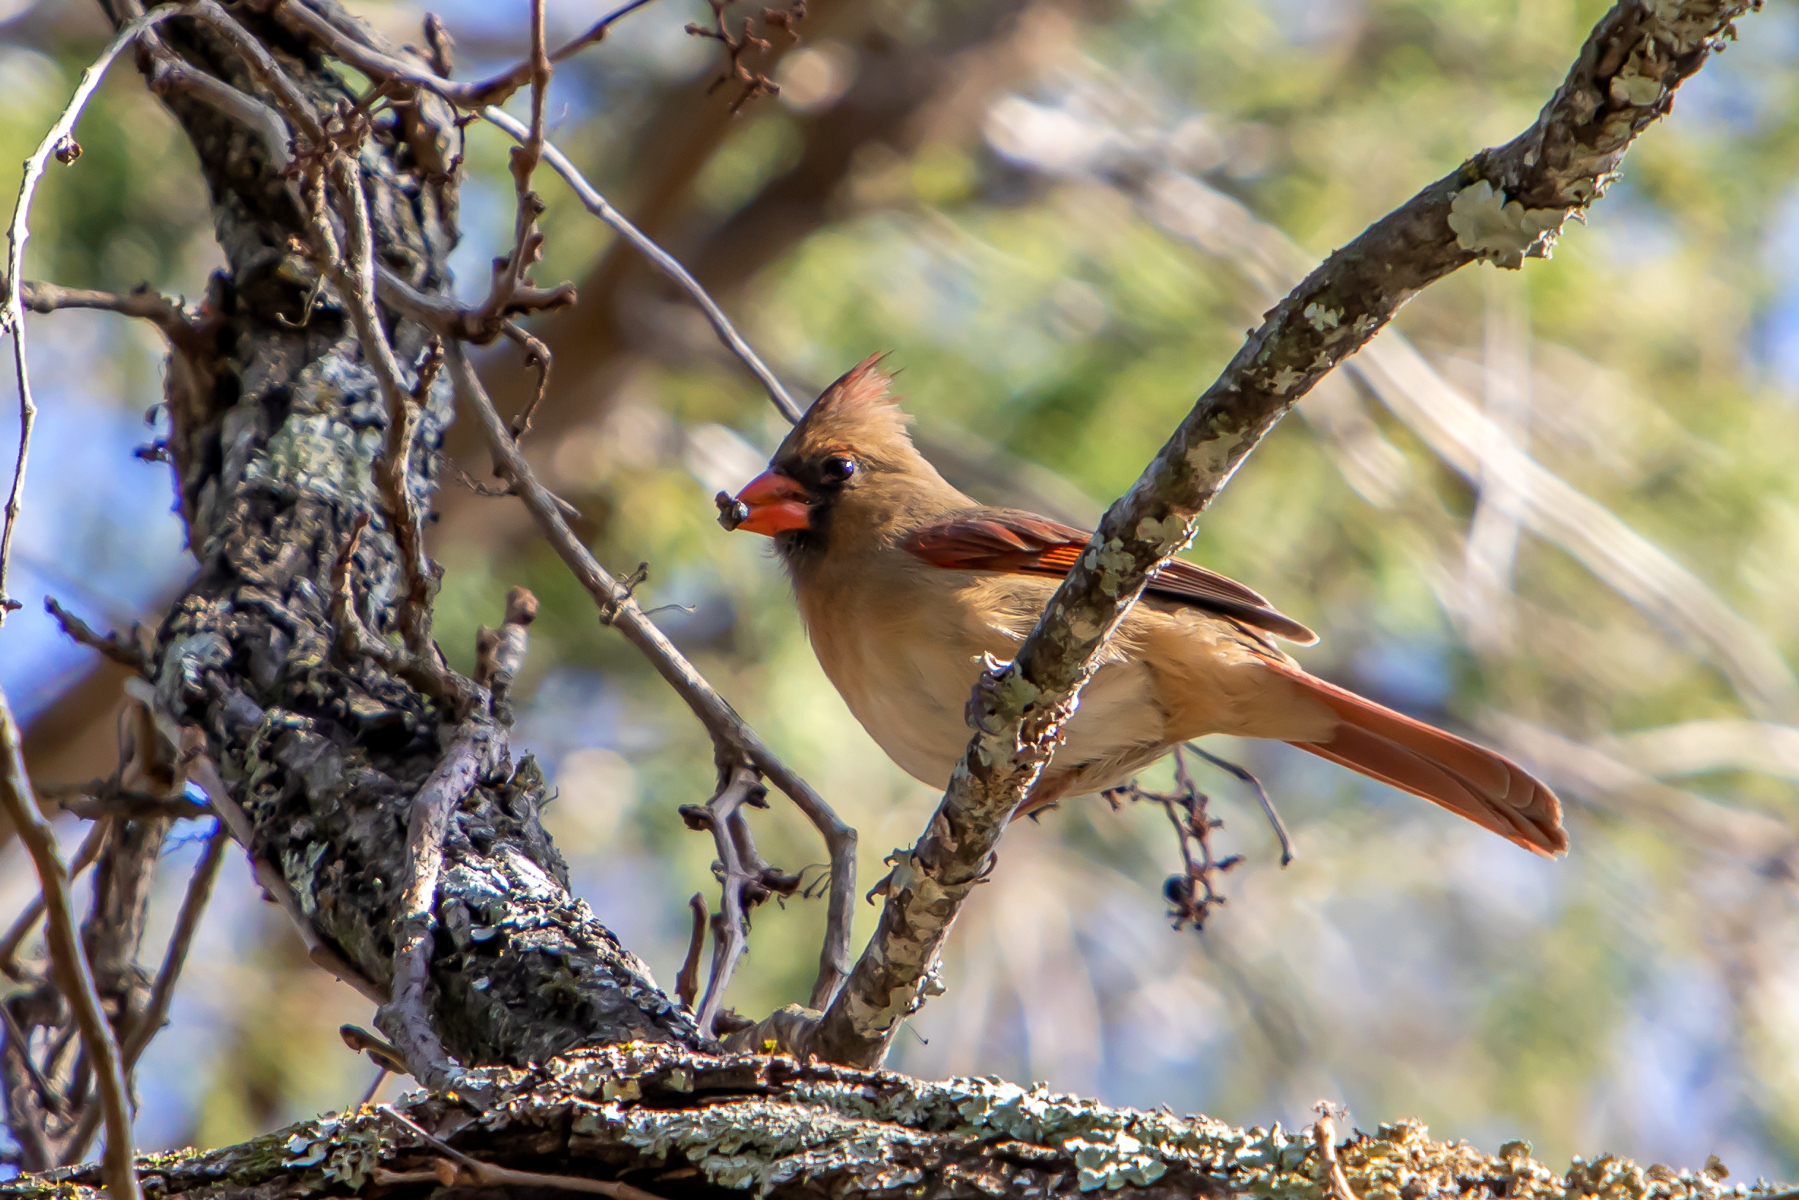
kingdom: Animalia
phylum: Chordata
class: Aves
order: Passeriformes
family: Cardinalidae
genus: Cardinalis
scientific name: Cardinalis cardinalis
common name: Northern cardinal
